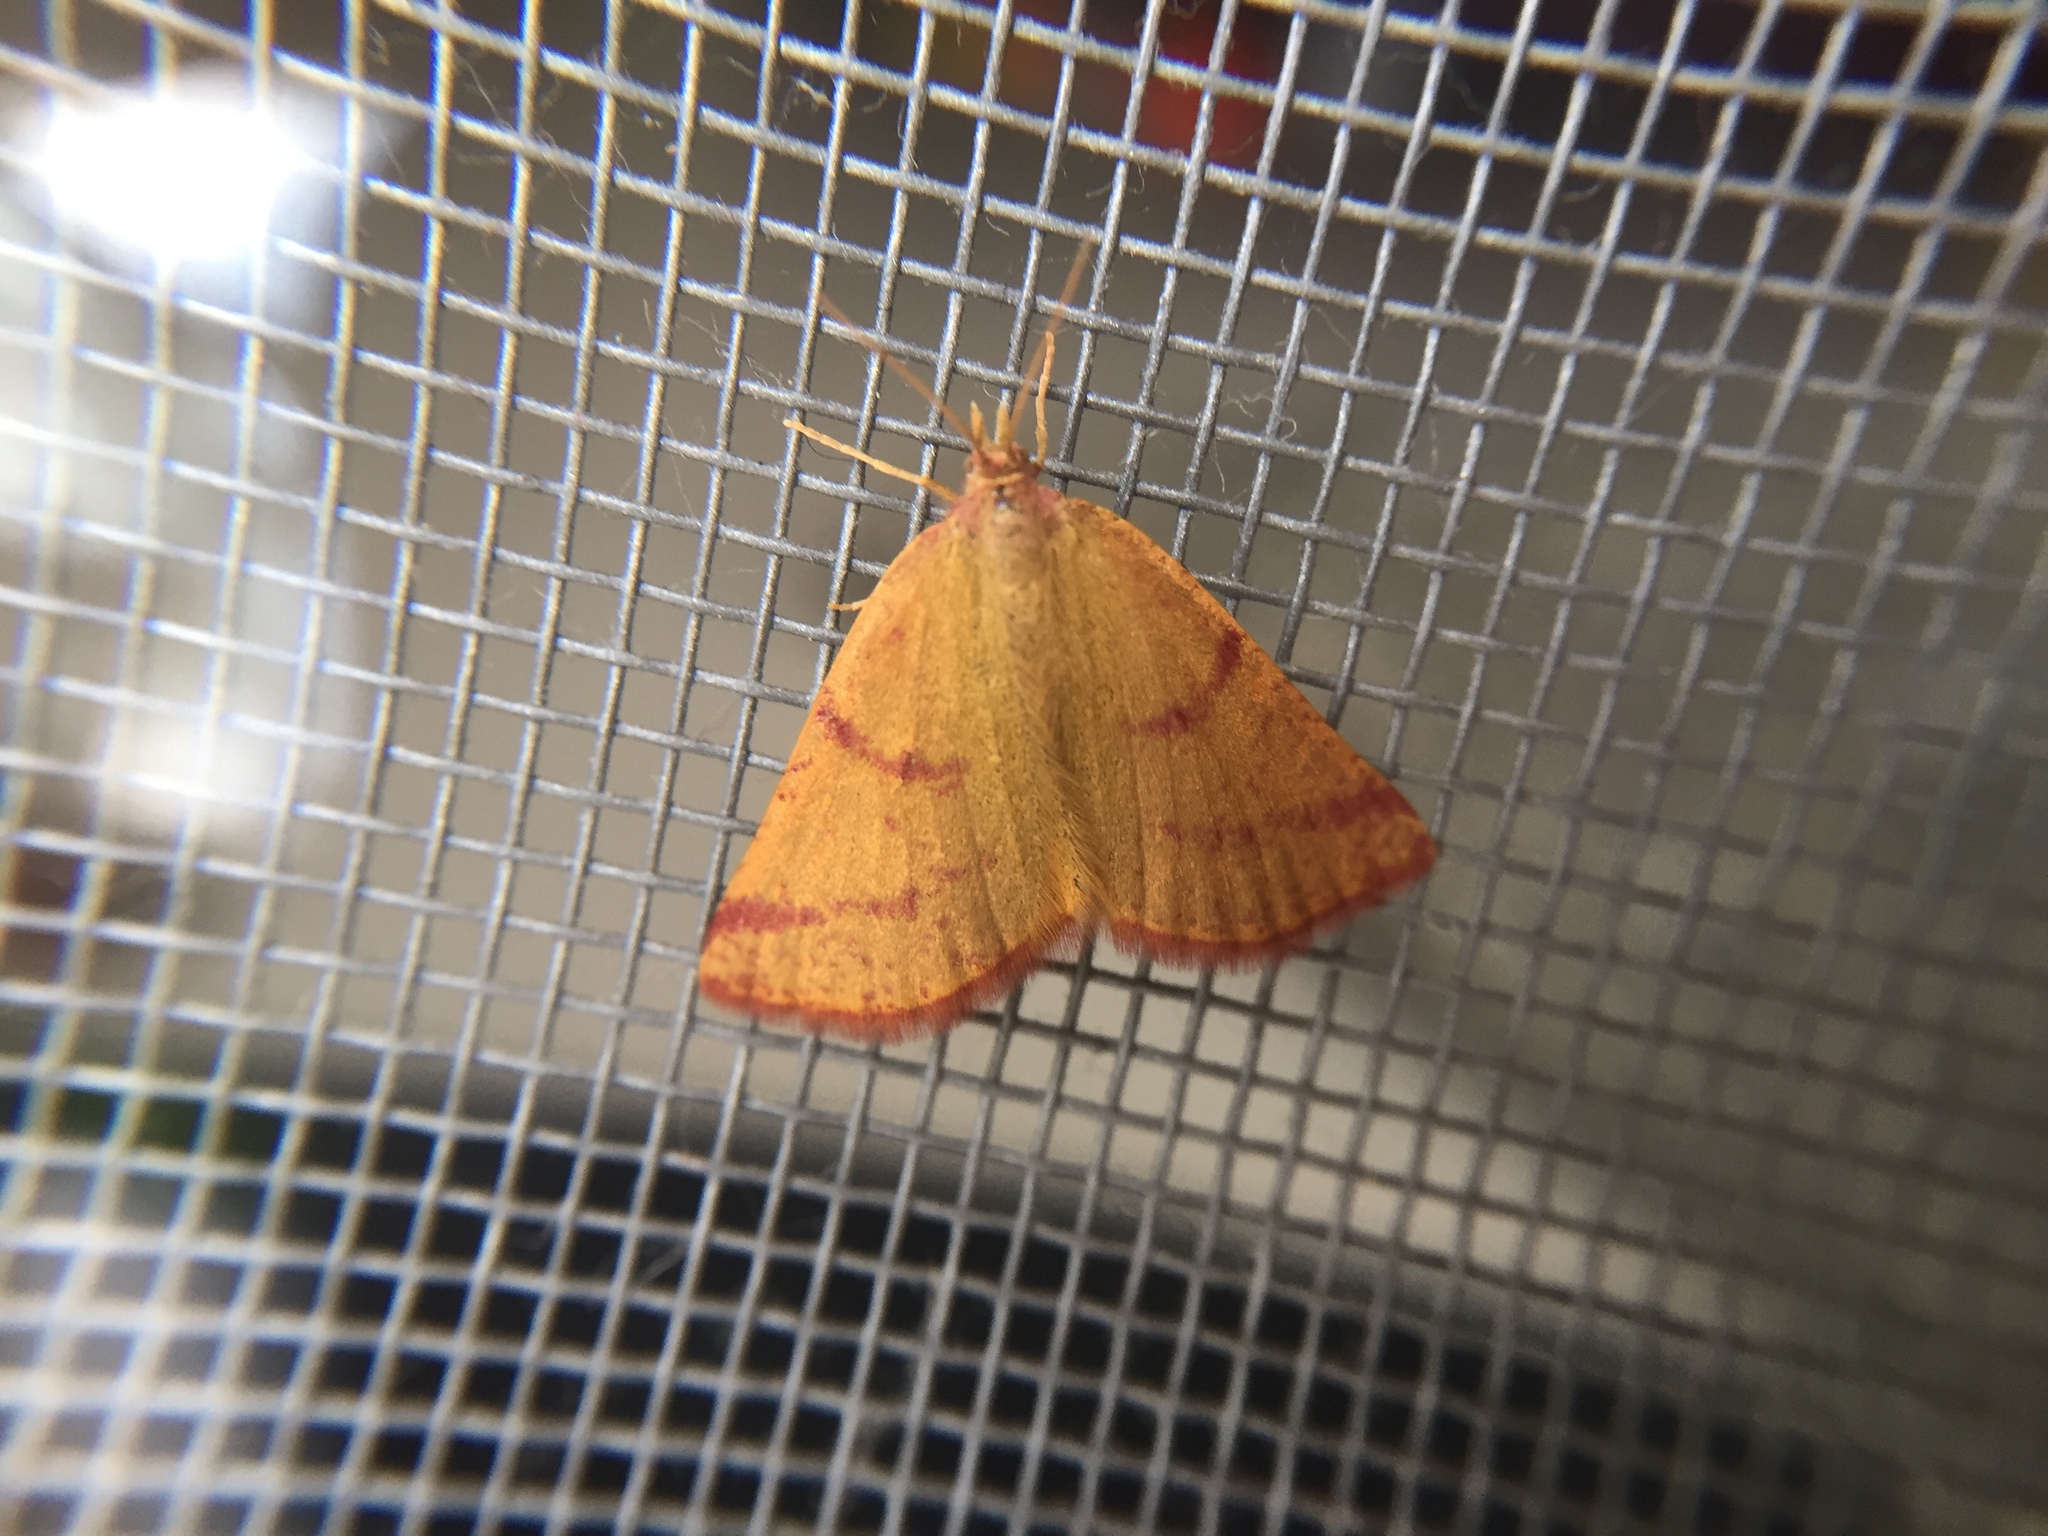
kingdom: Animalia
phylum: Arthropoda
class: Insecta
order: Lepidoptera
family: Geometridae
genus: Lythria
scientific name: Lythria purpuraria
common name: Purple-barred yellow
